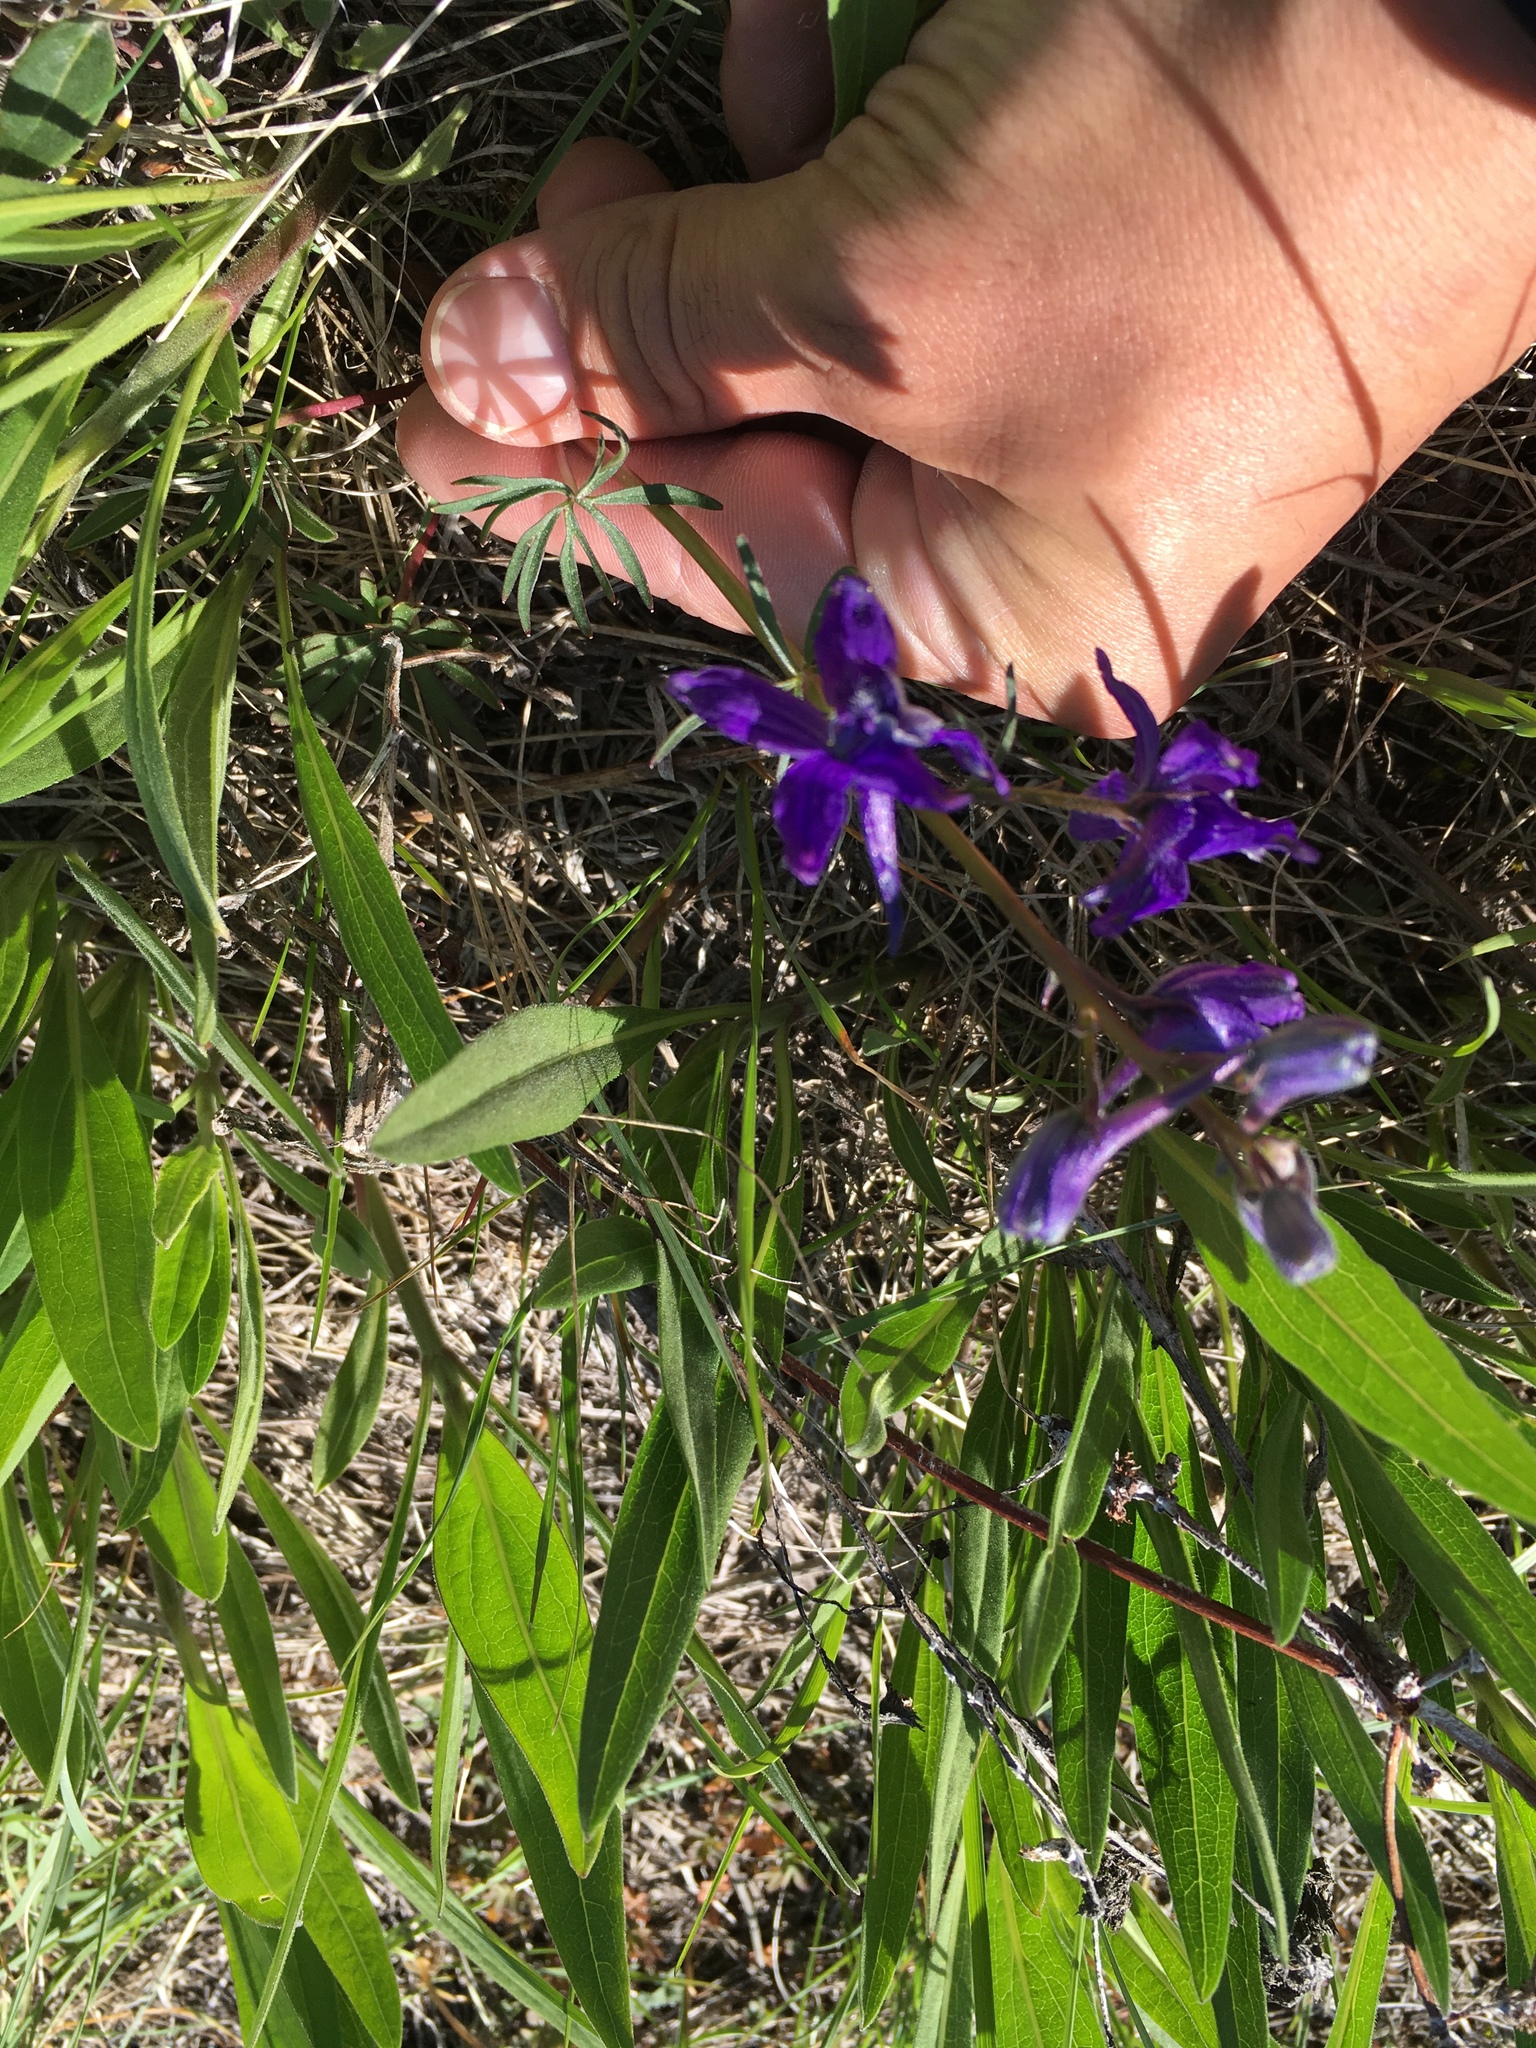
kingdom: Plantae
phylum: Tracheophyta
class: Magnoliopsida
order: Ranunculales
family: Ranunculaceae
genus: Delphinium
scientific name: Delphinium nuttallianum
